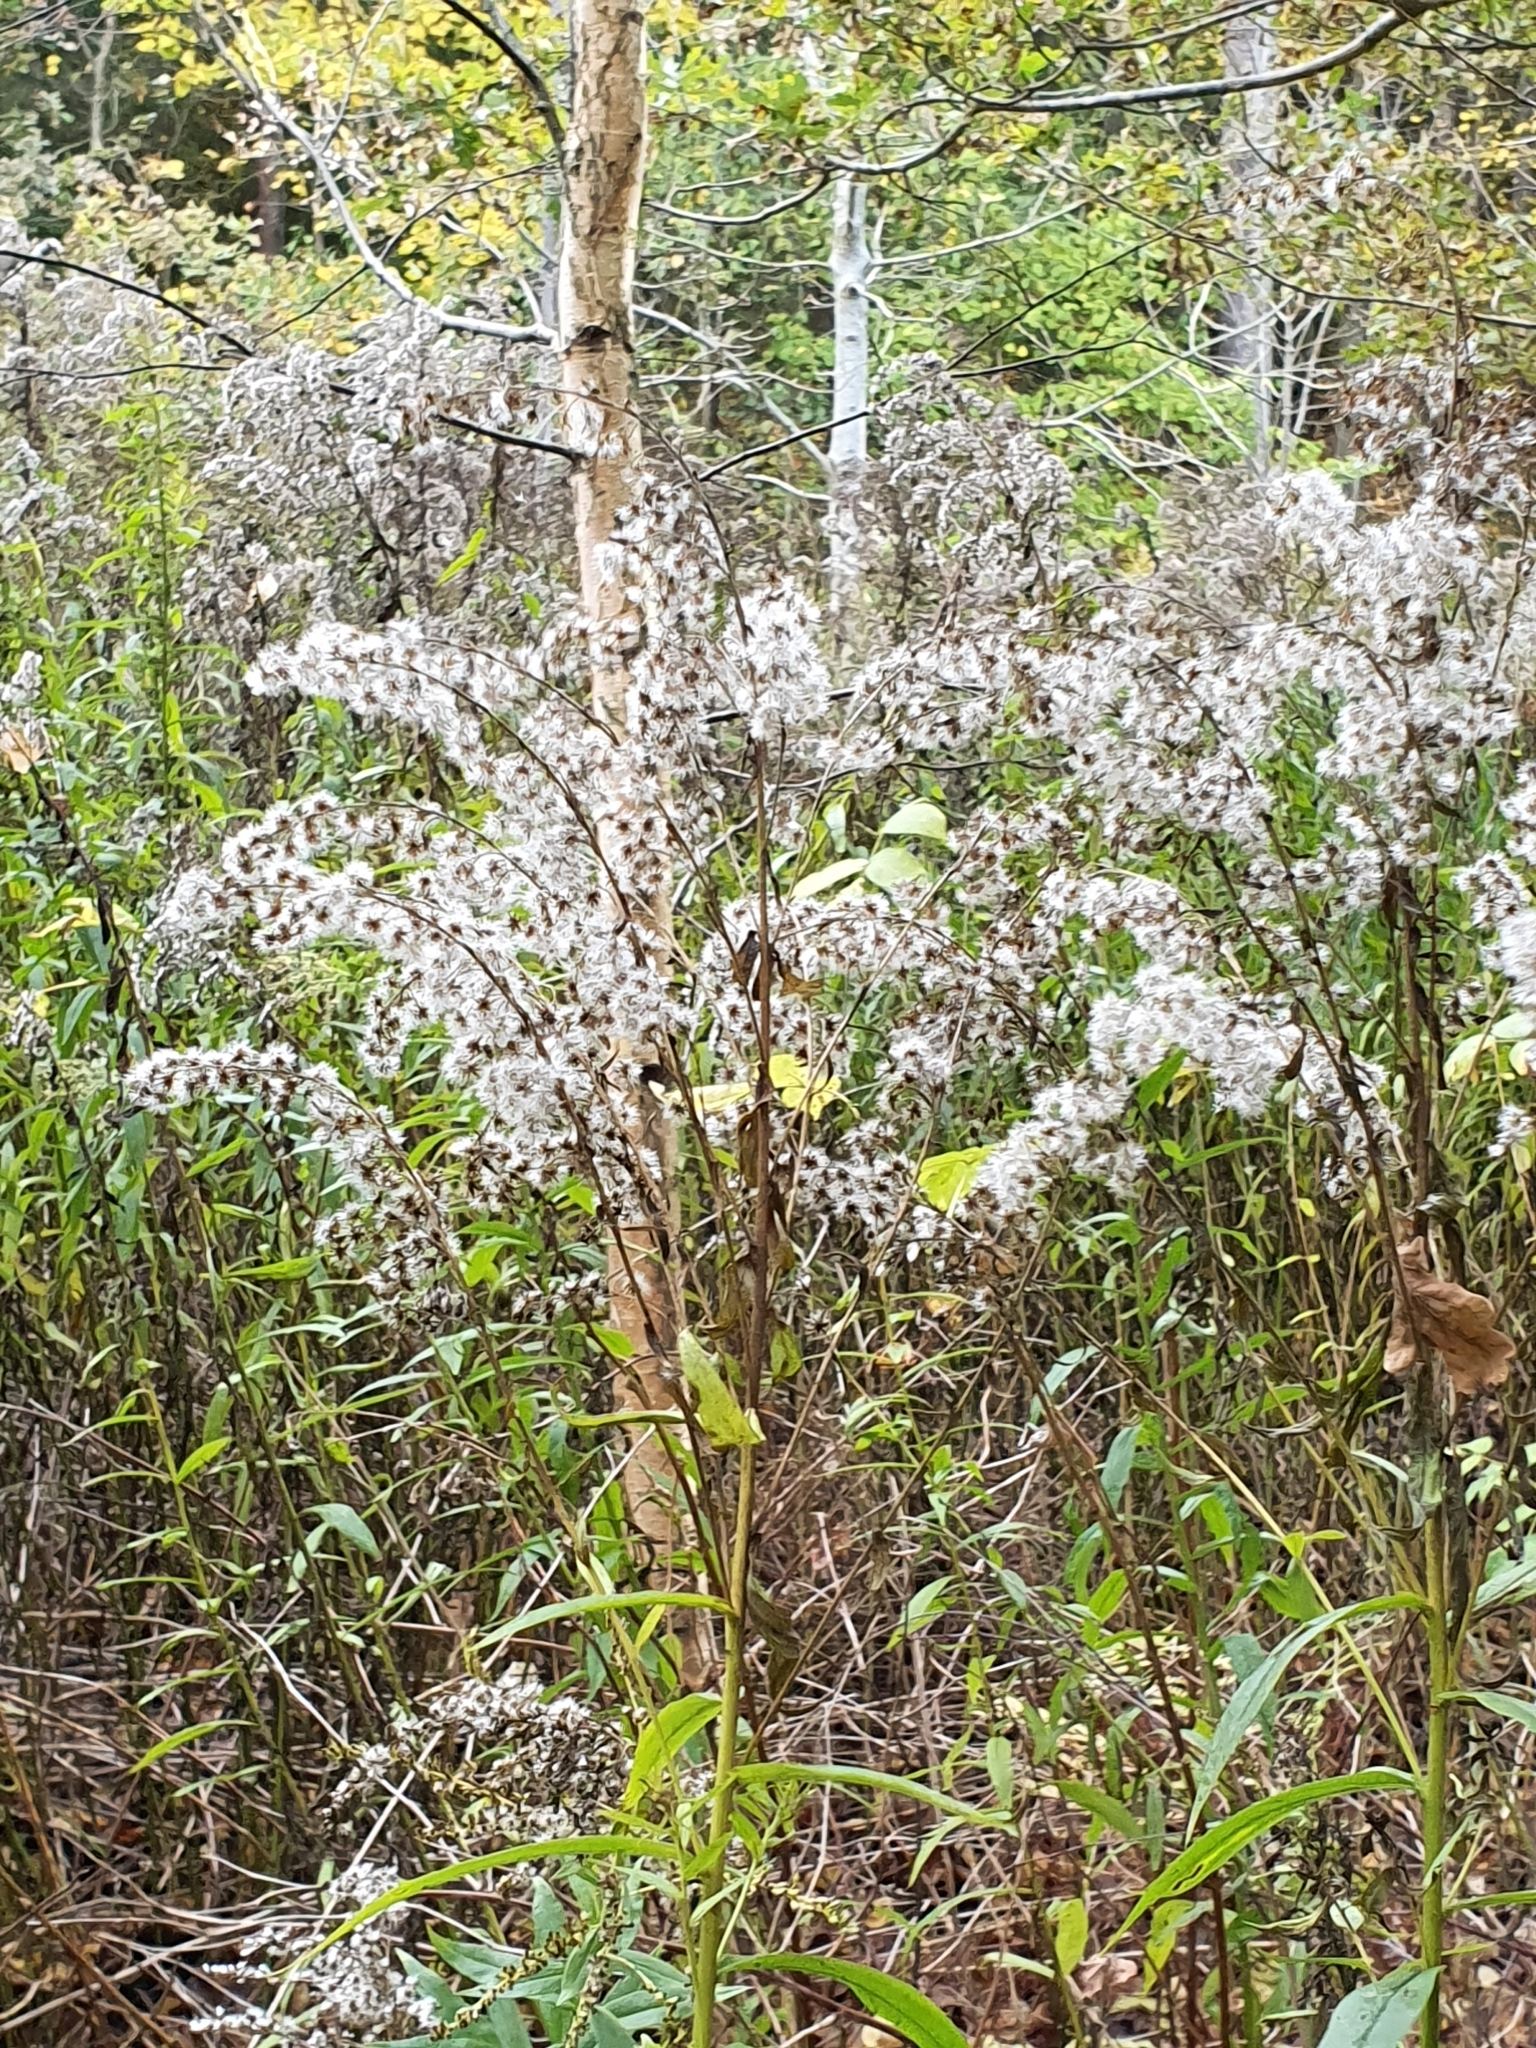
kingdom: Plantae
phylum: Tracheophyta
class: Magnoliopsida
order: Asterales
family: Asteraceae
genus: Solidago
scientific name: Solidago canadensis
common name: Canada goldenrod
